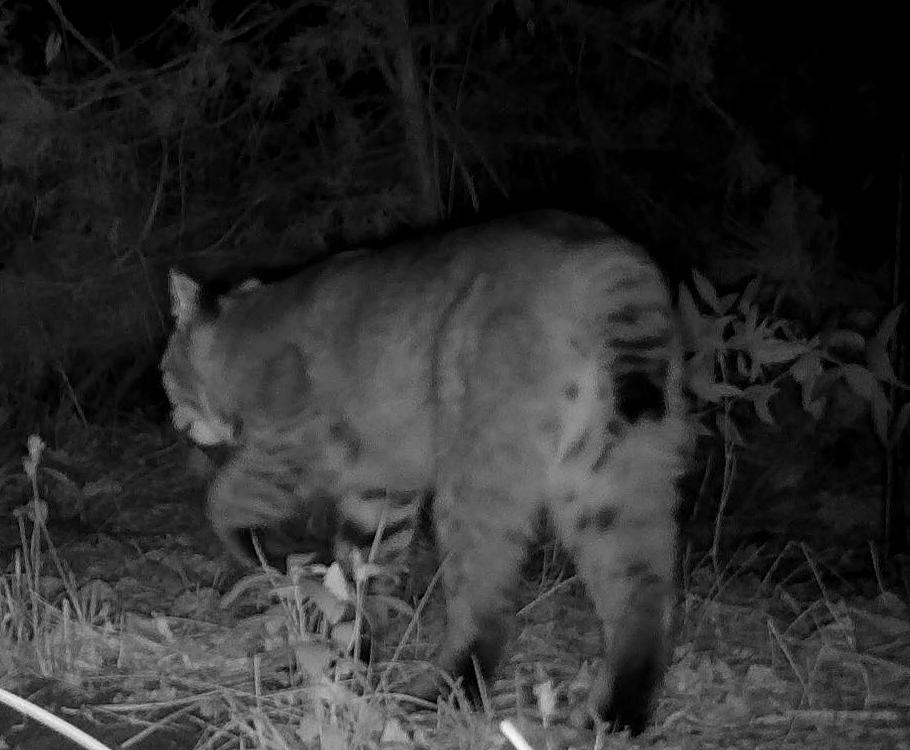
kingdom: Animalia
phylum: Chordata
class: Mammalia
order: Carnivora
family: Felidae
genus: Lynx
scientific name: Lynx rufus
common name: Bobcat
